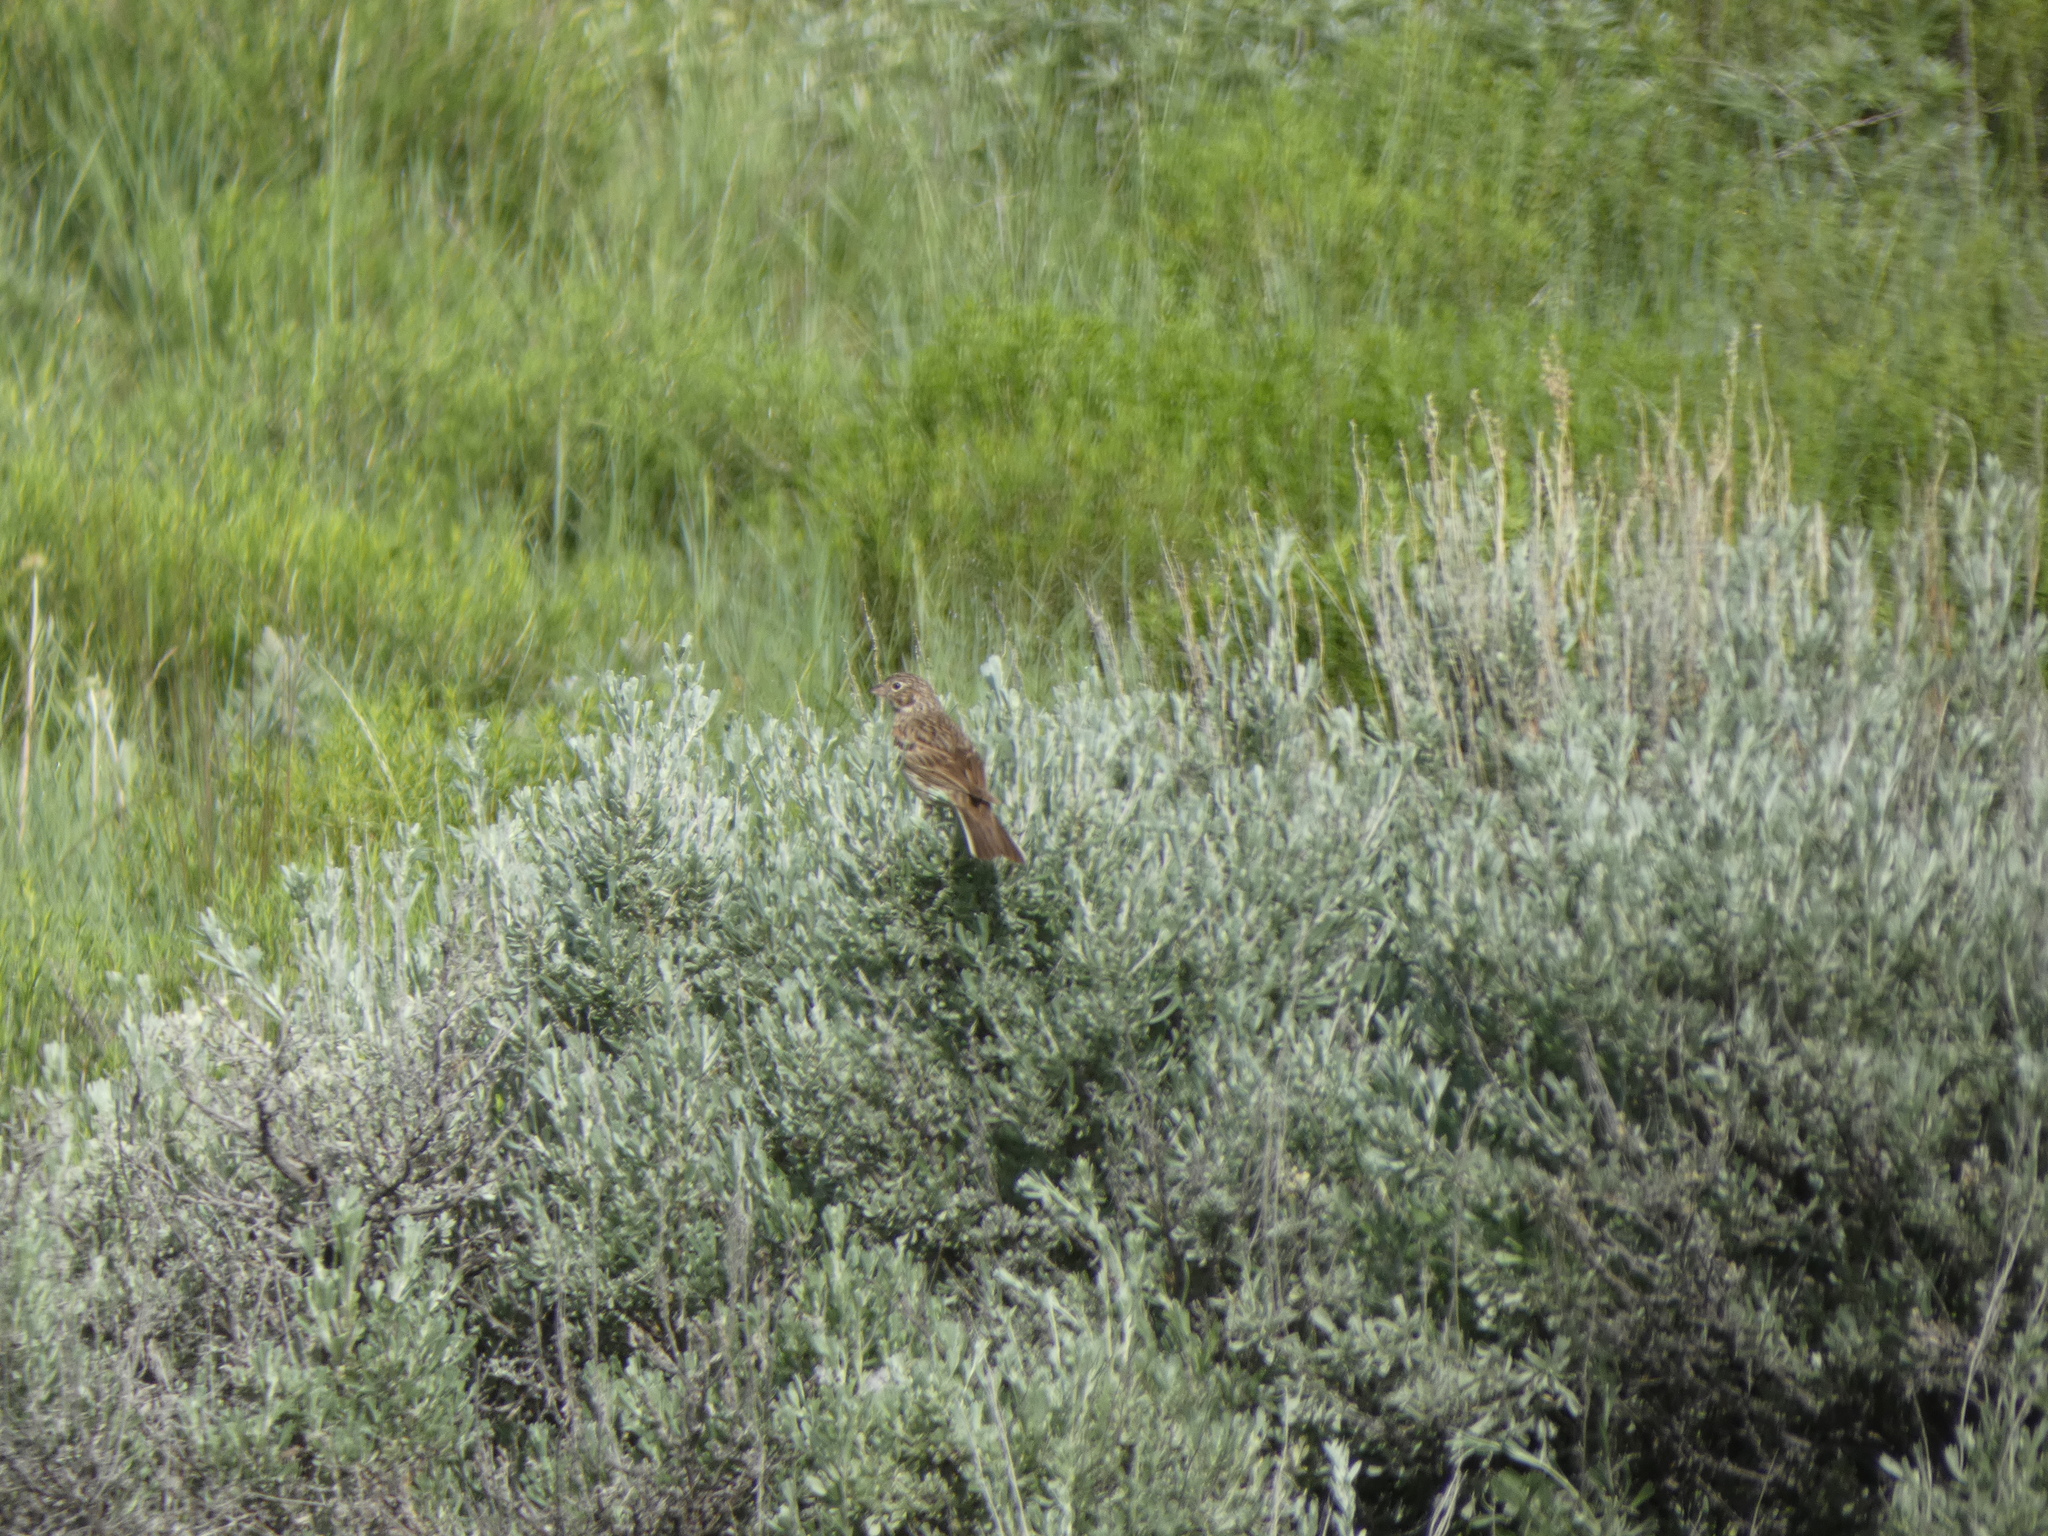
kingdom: Animalia
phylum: Chordata
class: Aves
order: Passeriformes
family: Passerellidae
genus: Pooecetes
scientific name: Pooecetes gramineus
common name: Vesper sparrow
